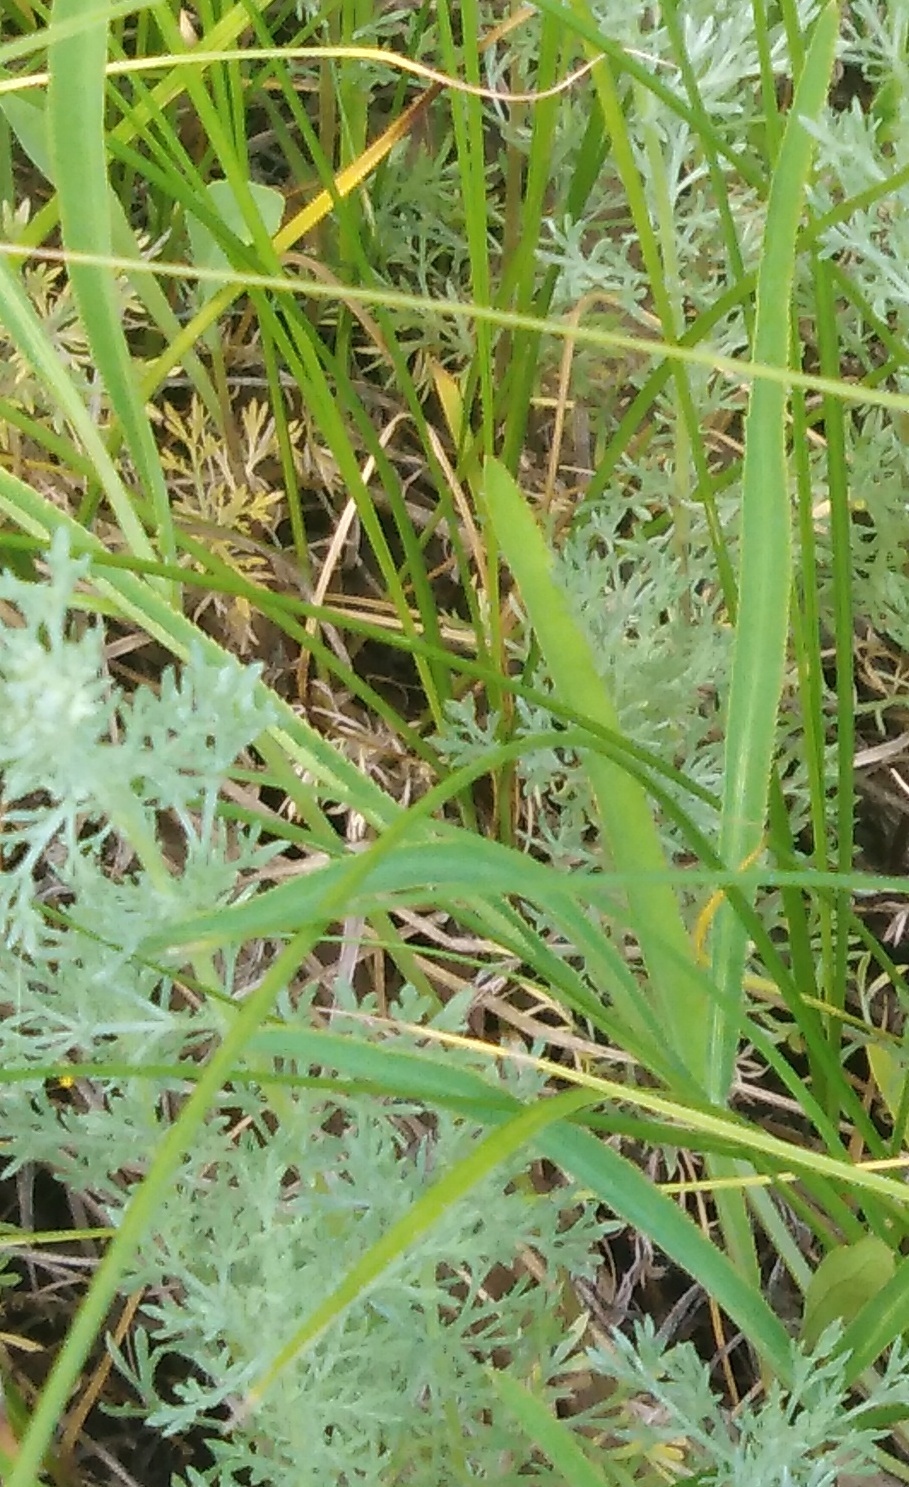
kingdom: Plantae
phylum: Tracheophyta
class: Magnoliopsida
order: Apiales
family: Apiaceae
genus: Falcaria
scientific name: Falcaria vulgaris
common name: Longleaf
